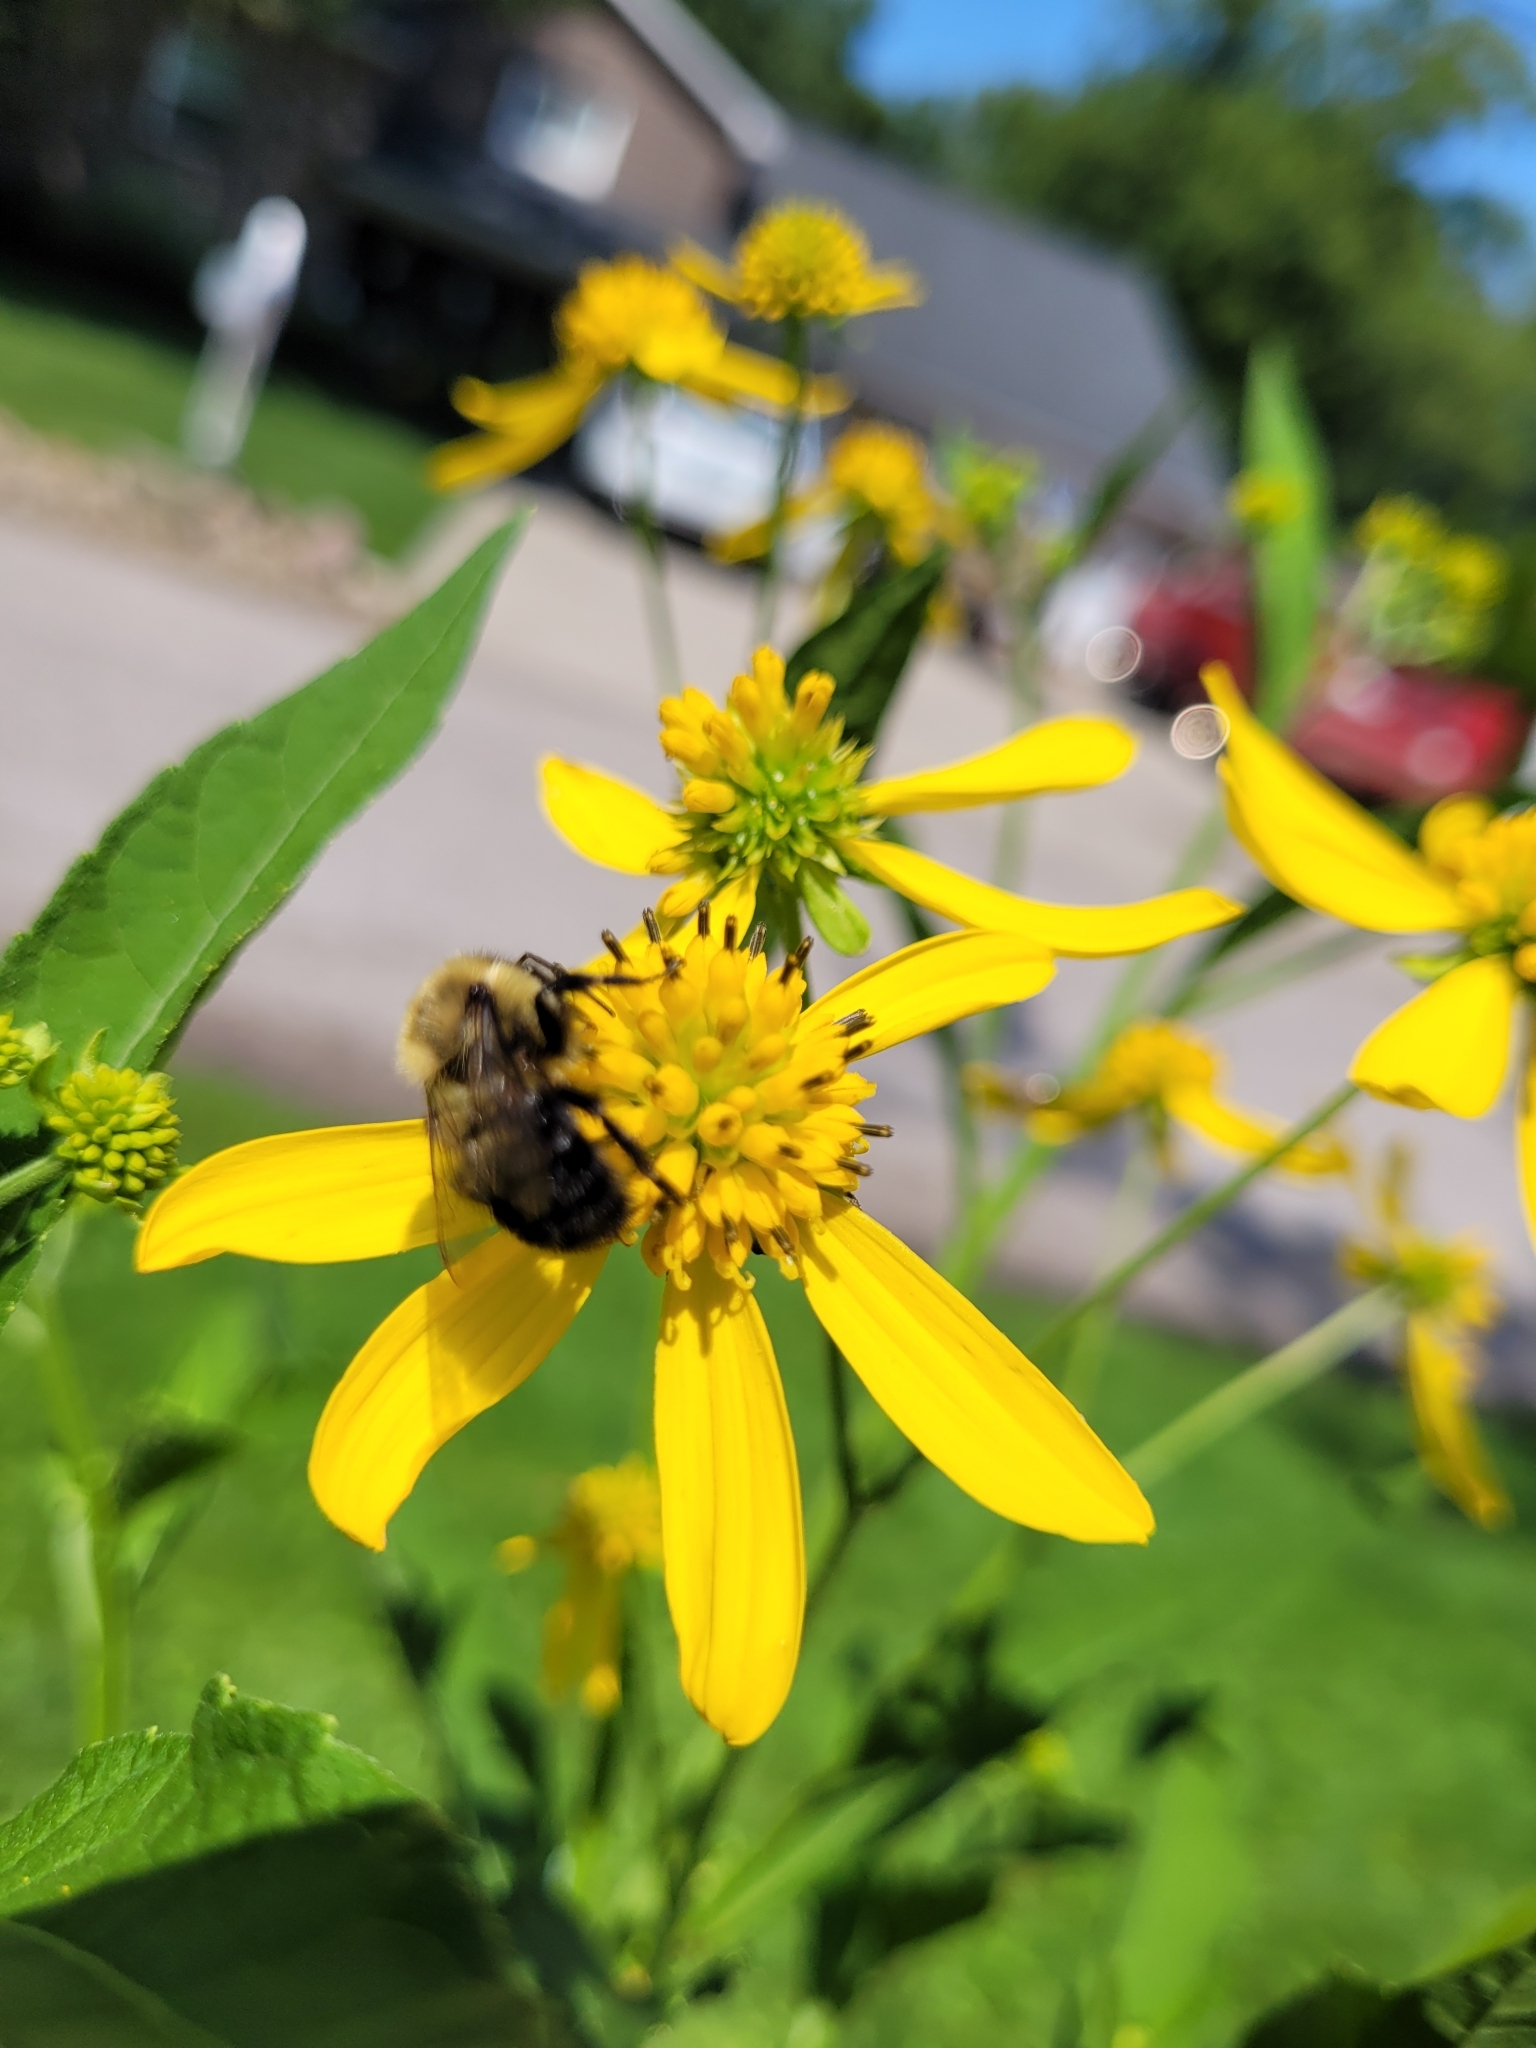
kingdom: Animalia
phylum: Arthropoda
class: Insecta
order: Hymenoptera
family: Apidae
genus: Bombus
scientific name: Bombus impatiens
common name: Common eastern bumble bee
